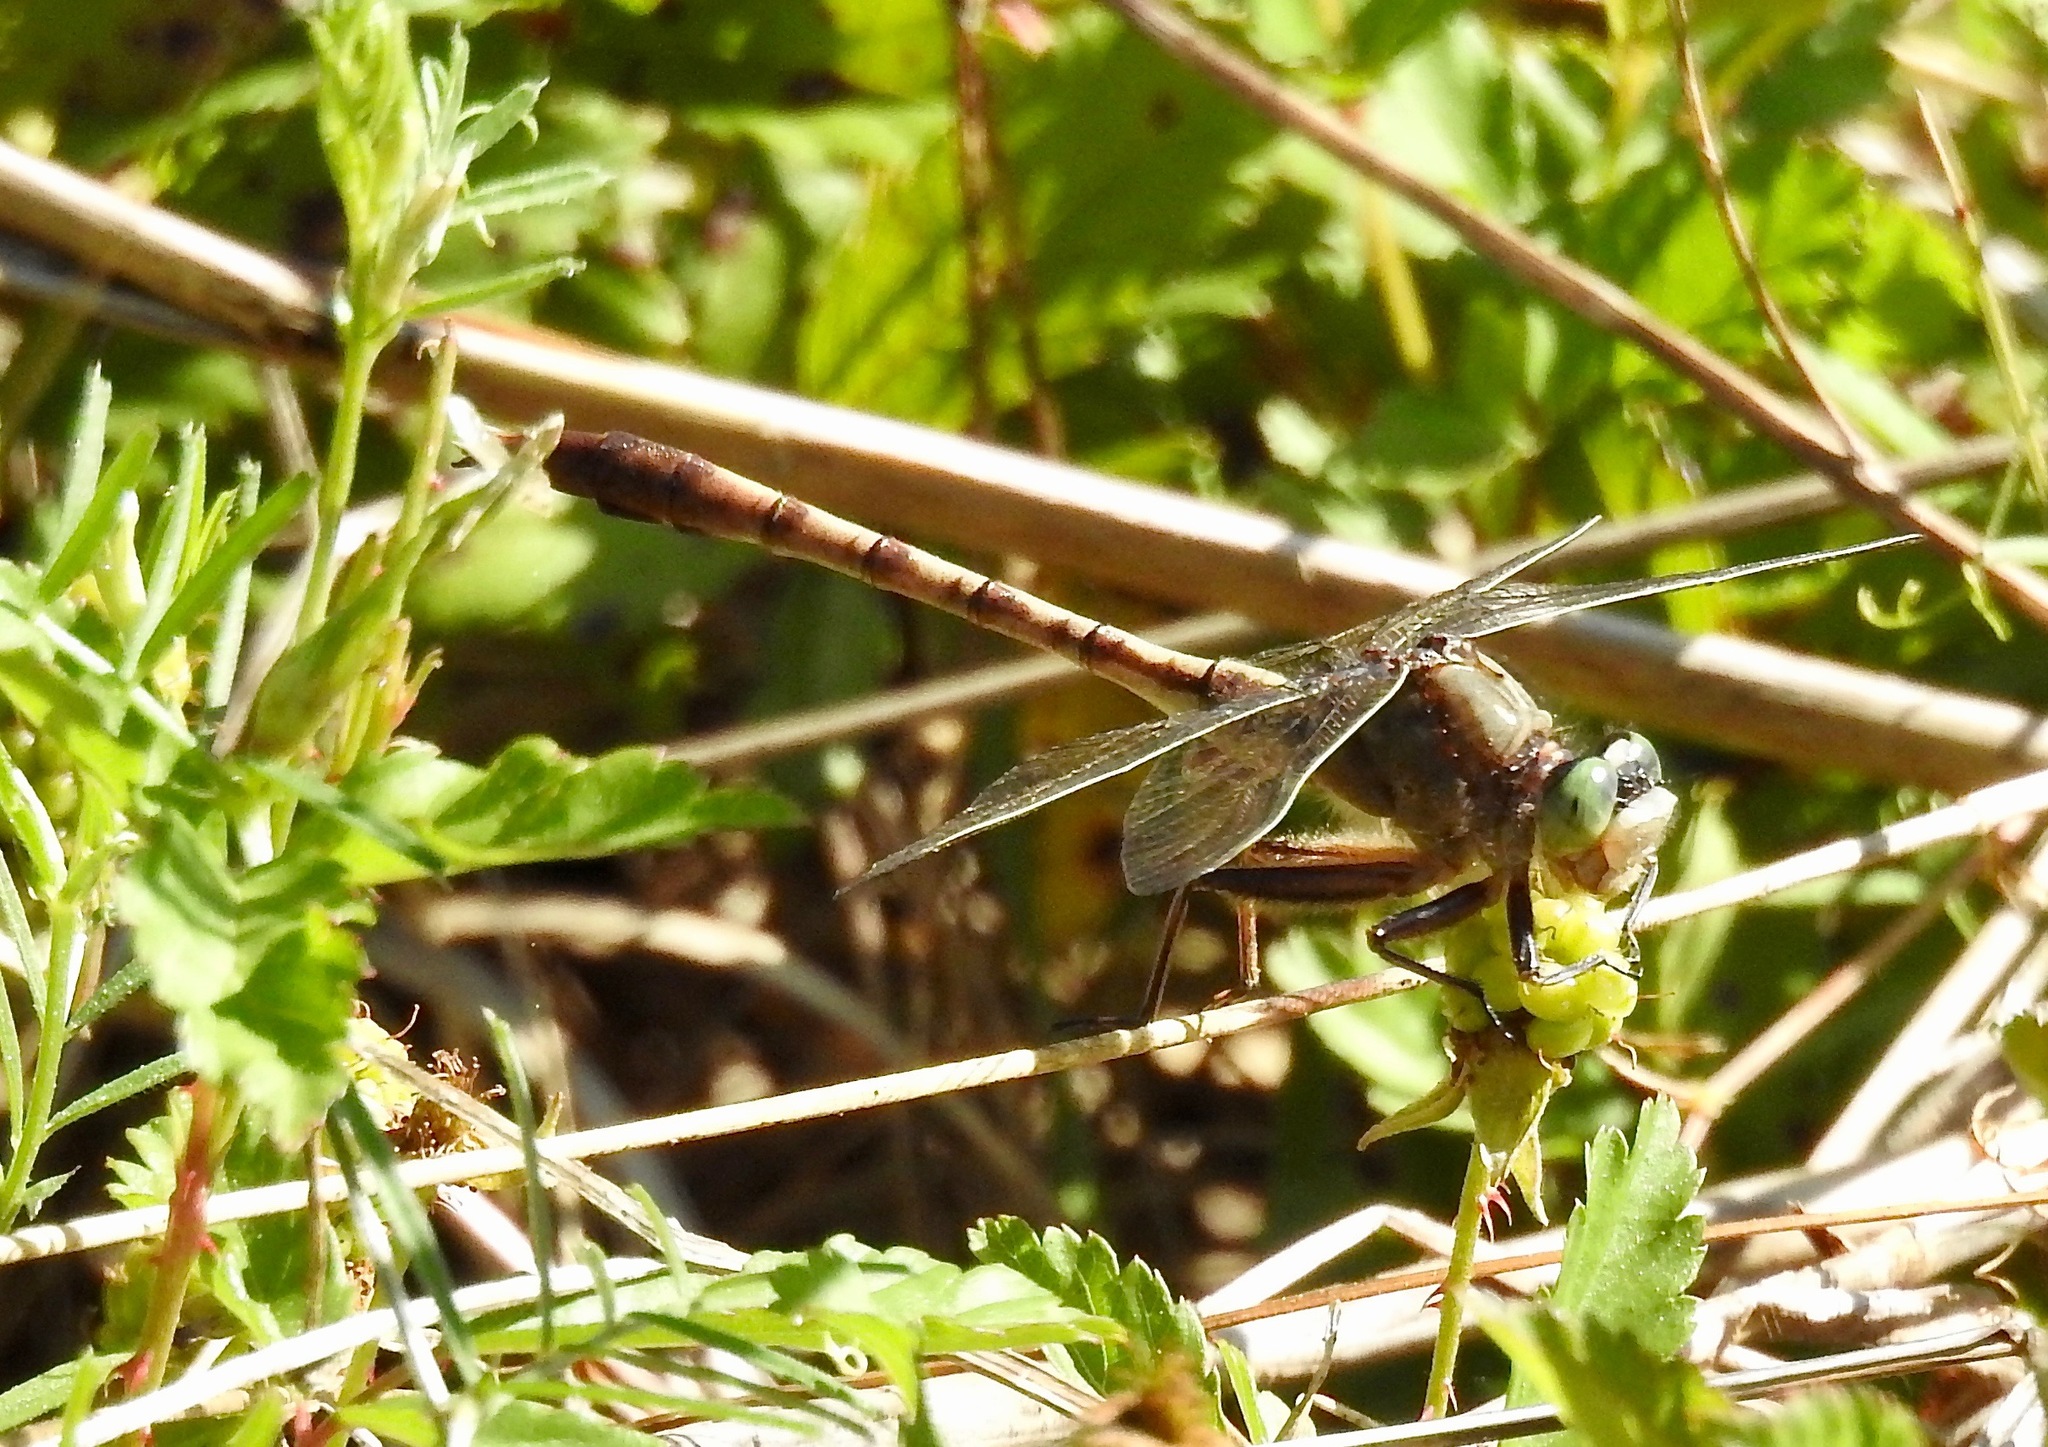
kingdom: Animalia
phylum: Arthropoda
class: Insecta
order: Odonata
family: Gomphidae
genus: Arigomphus
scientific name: Arigomphus pallidus
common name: Gray-green clubtail
